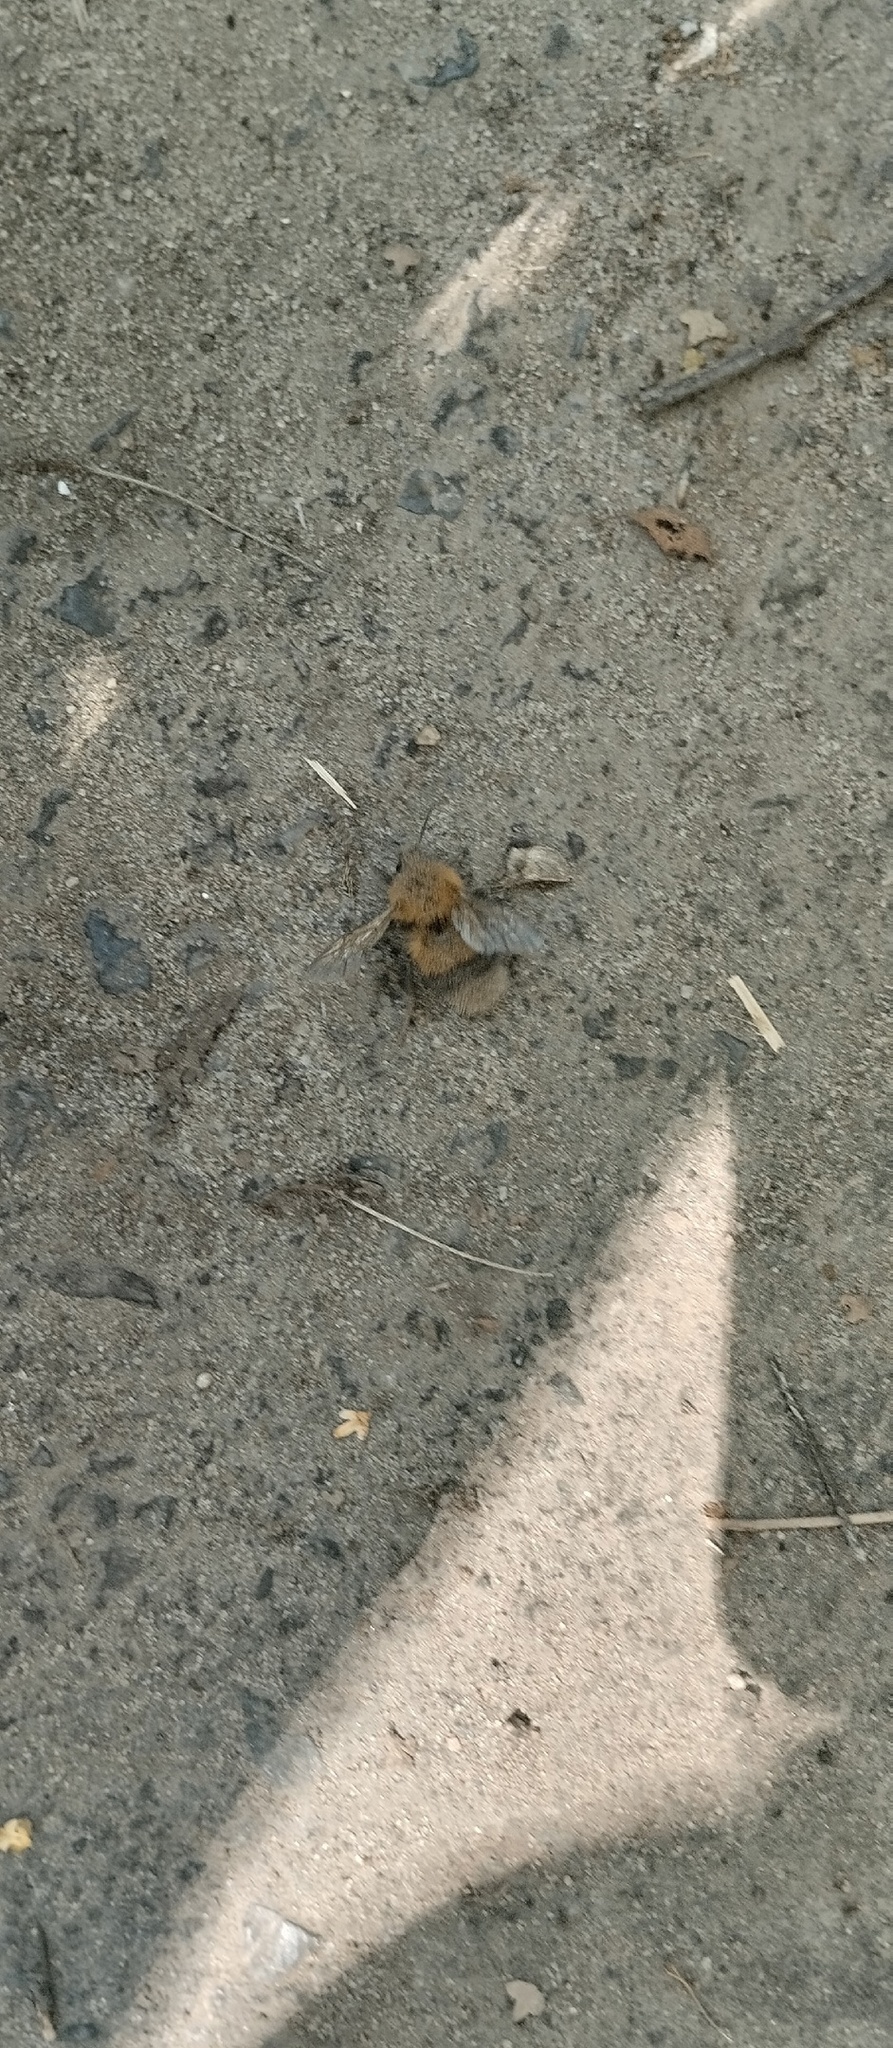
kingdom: Animalia
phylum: Arthropoda
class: Insecta
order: Hymenoptera
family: Apidae
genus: Bombus
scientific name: Bombus hypnorum
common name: New garden bumblebee
